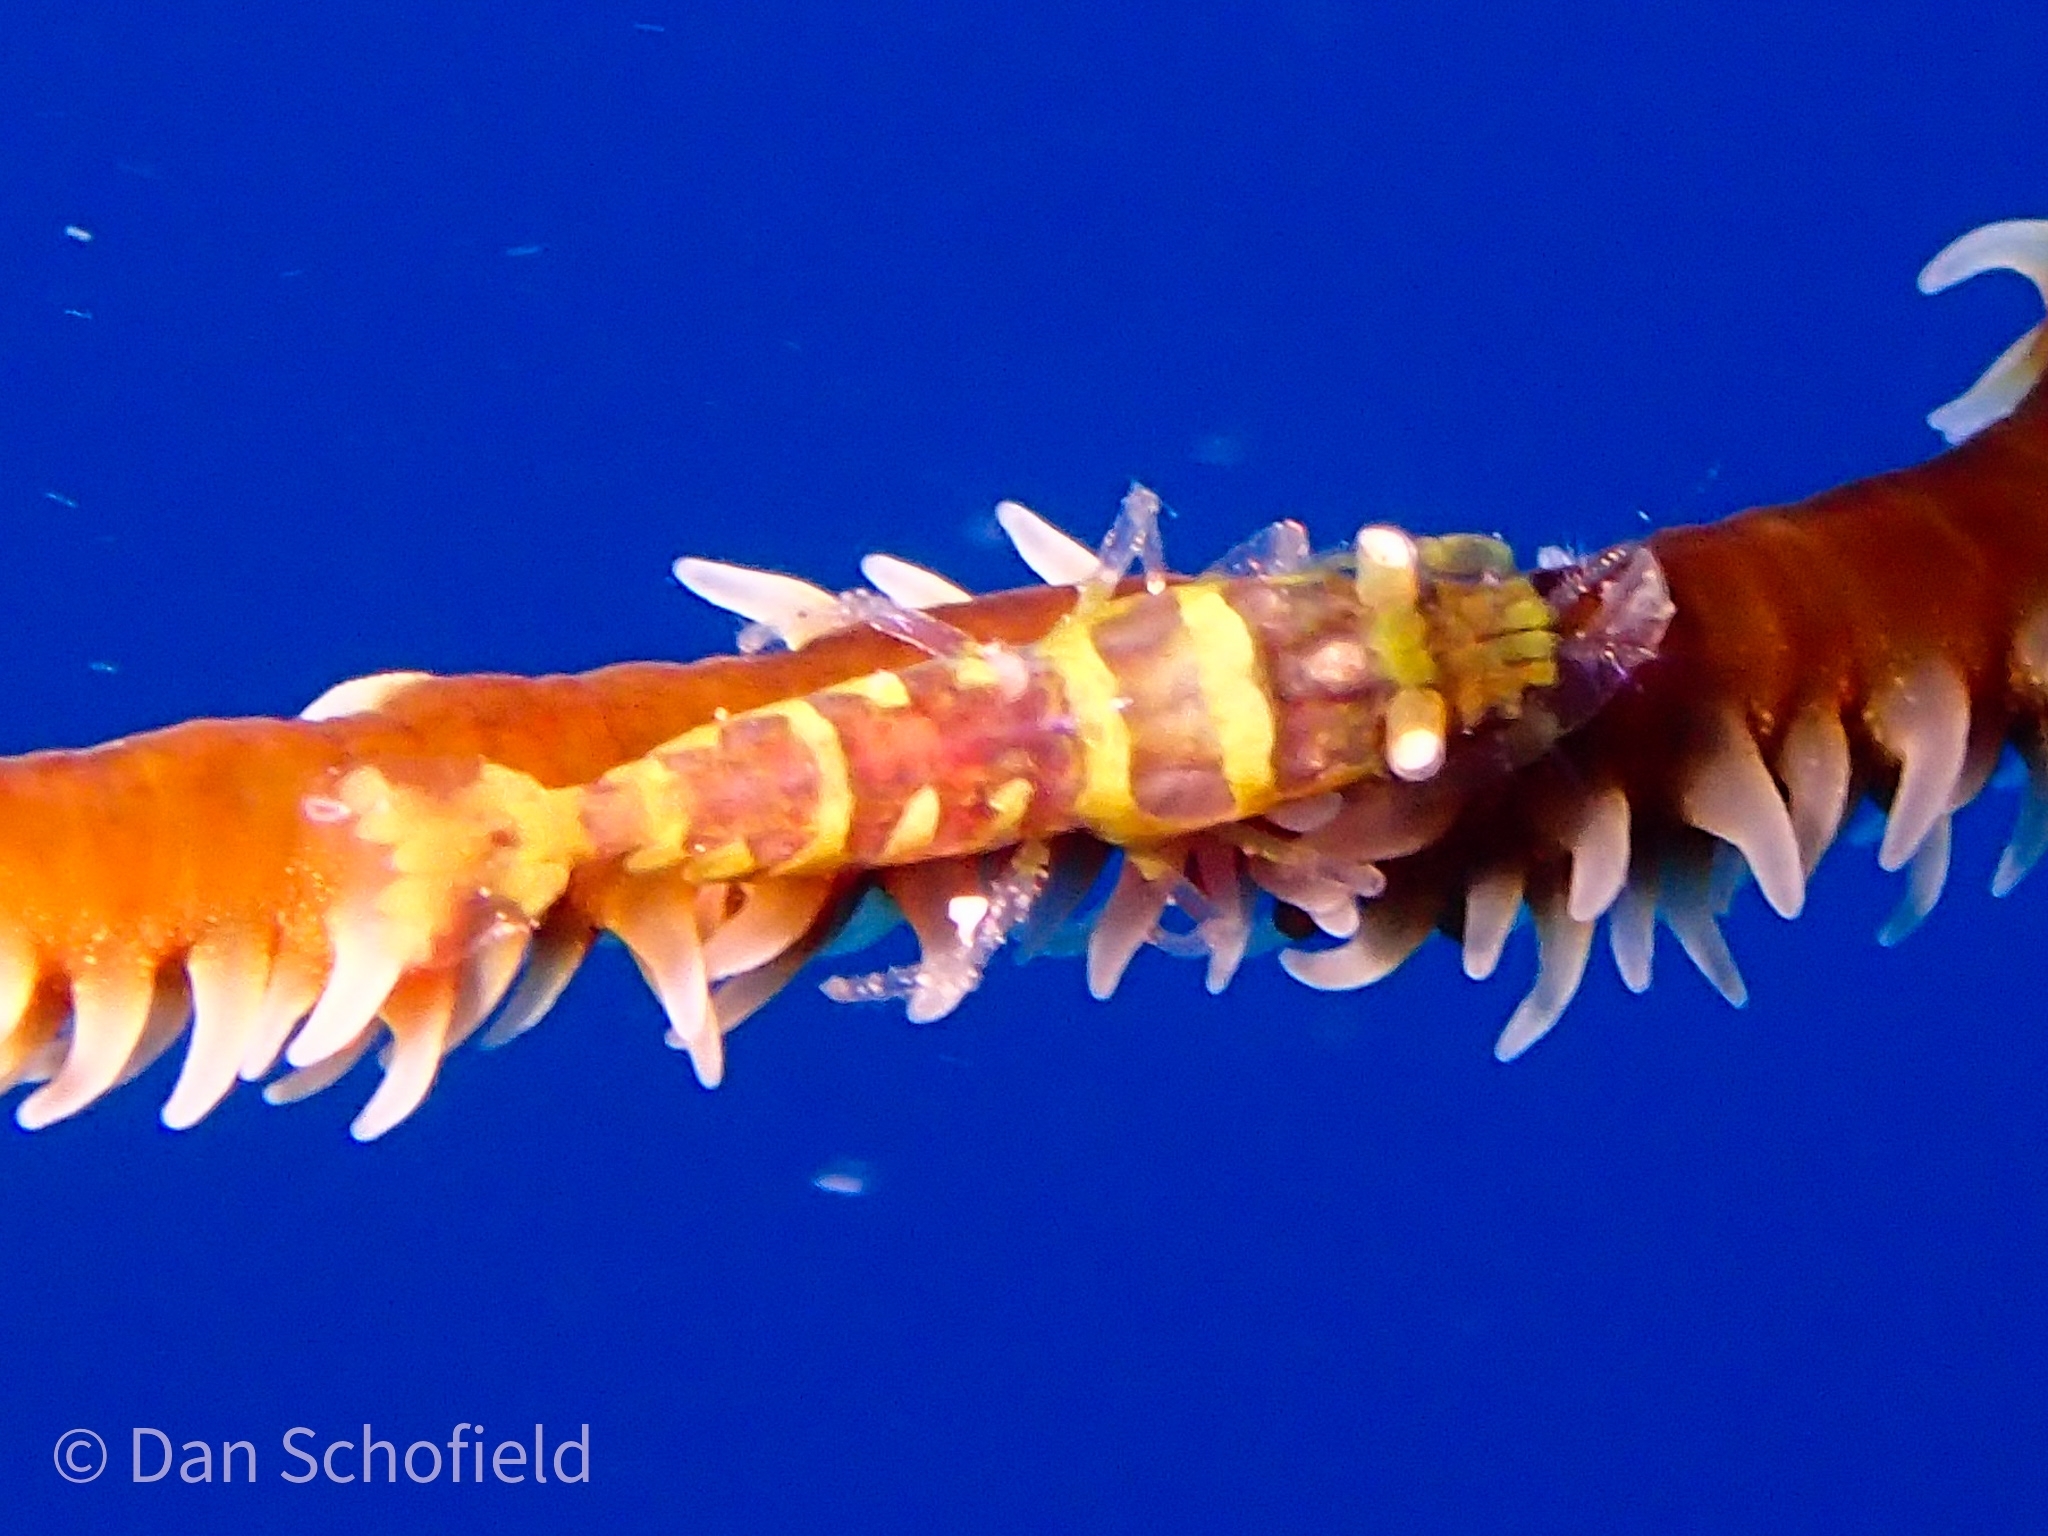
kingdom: Animalia
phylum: Arthropoda
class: Malacostraca
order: Decapoda
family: Palaemonidae
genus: Pseudopontonides
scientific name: Pseudopontonides principis
